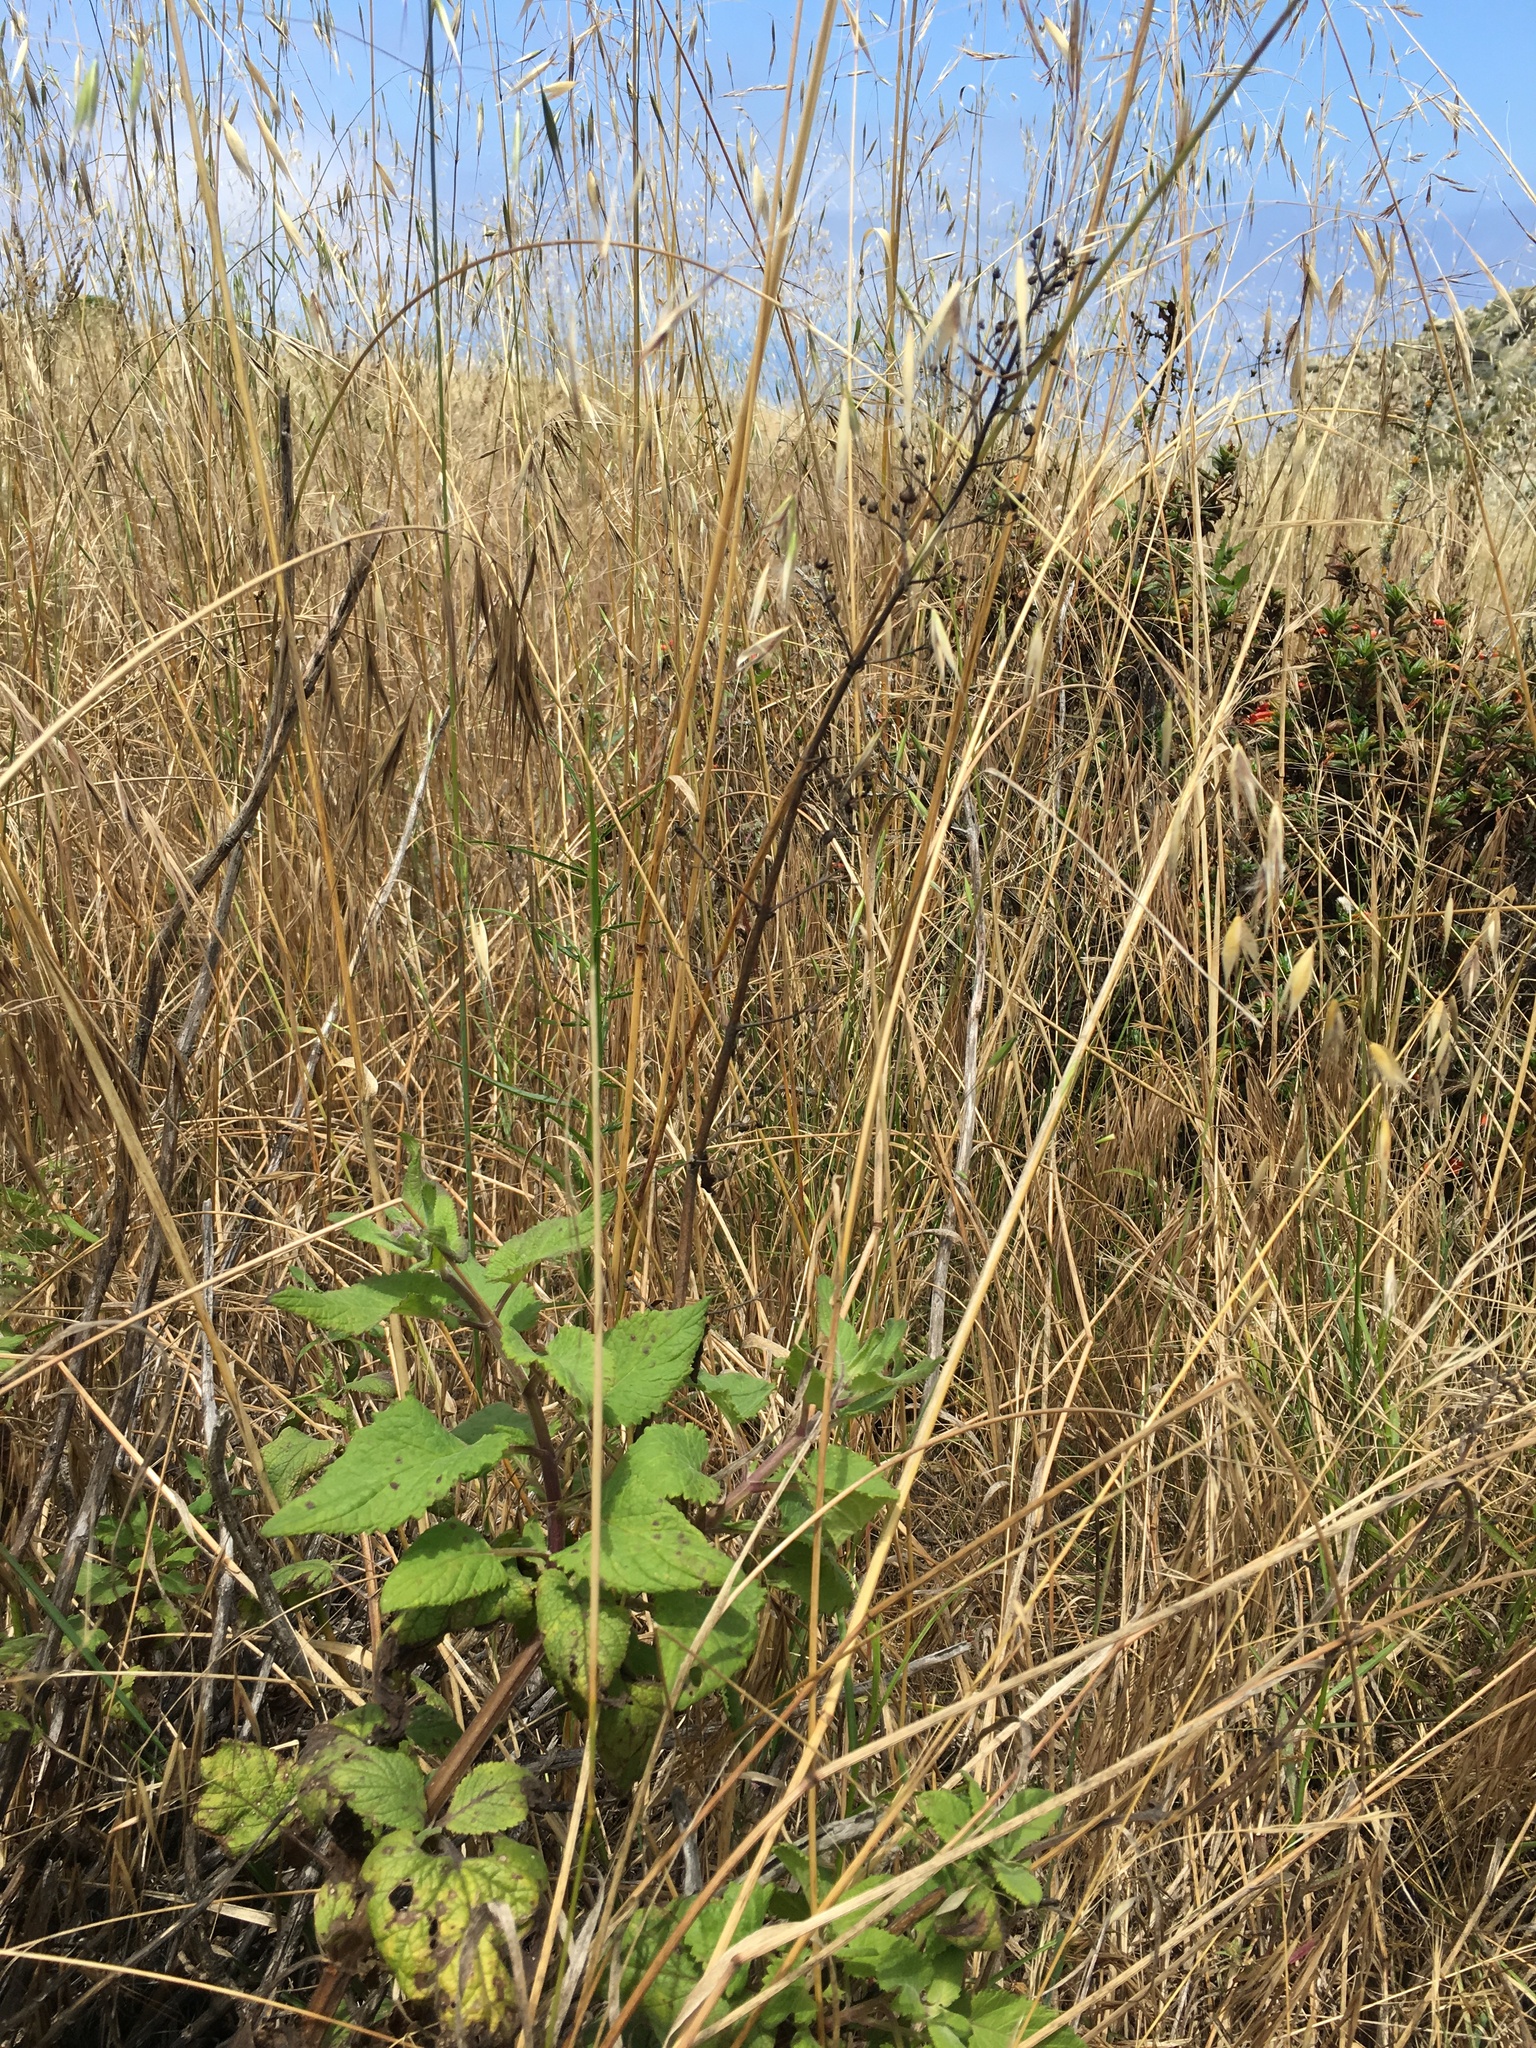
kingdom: Plantae
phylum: Tracheophyta
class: Magnoliopsida
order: Lamiales
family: Scrophulariaceae
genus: Scrophularia
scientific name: Scrophularia villosa
